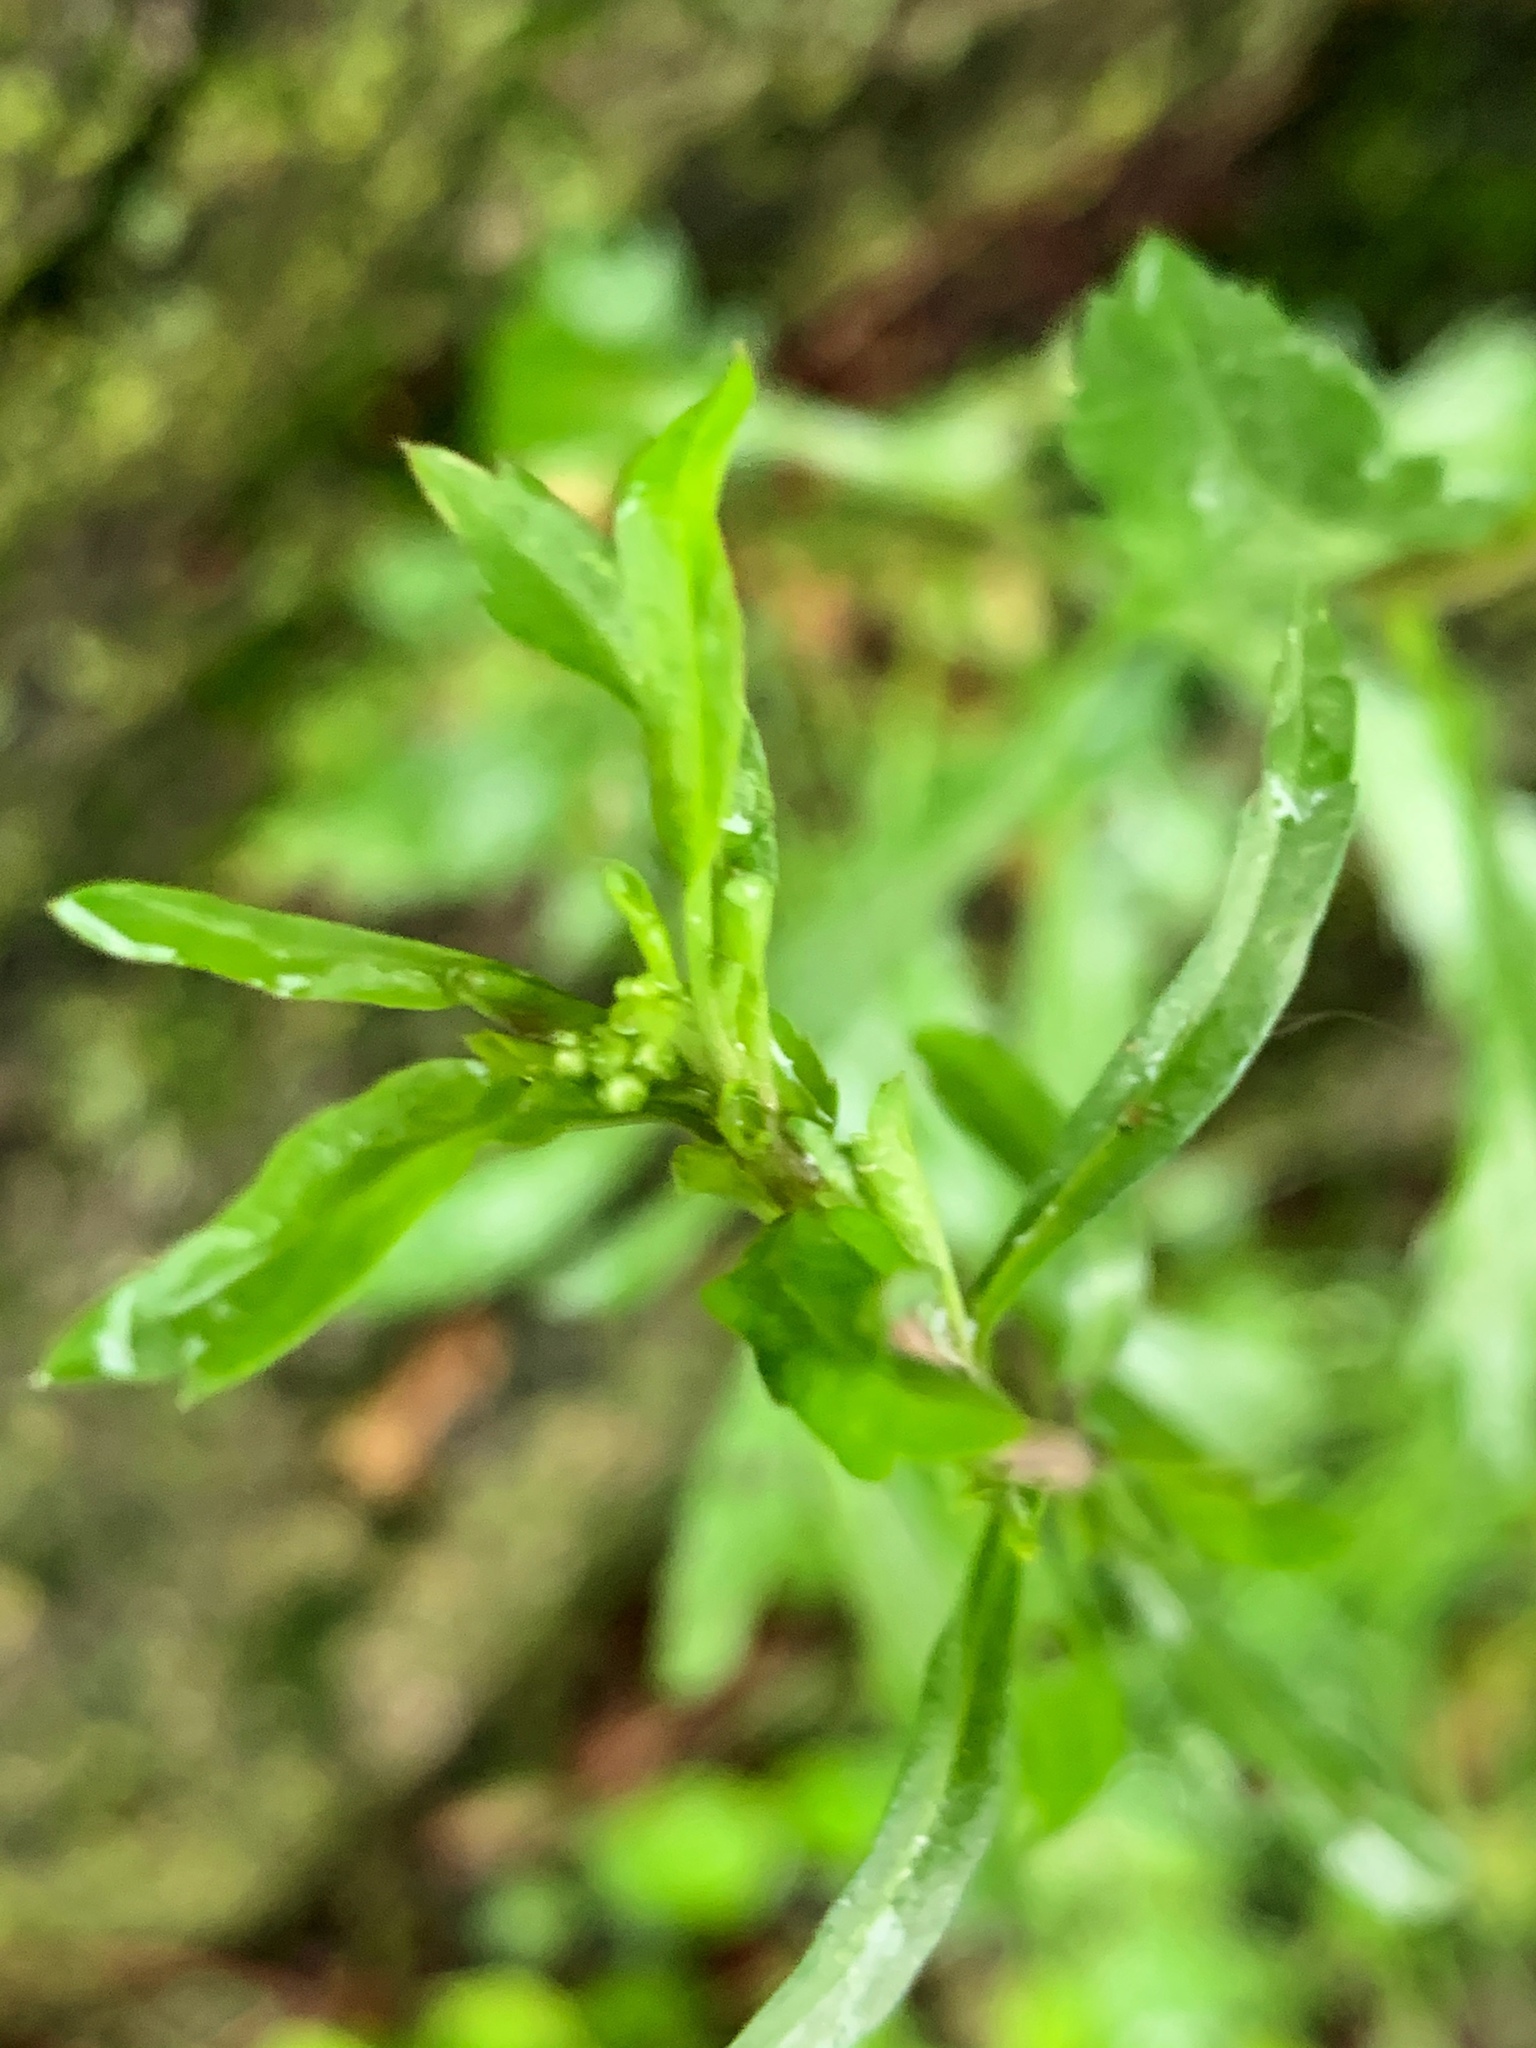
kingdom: Plantae
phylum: Tracheophyta
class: Magnoliopsida
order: Brassicales
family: Brassicaceae
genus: Lepidium
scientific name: Lepidium virginicum
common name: Least pepperwort
